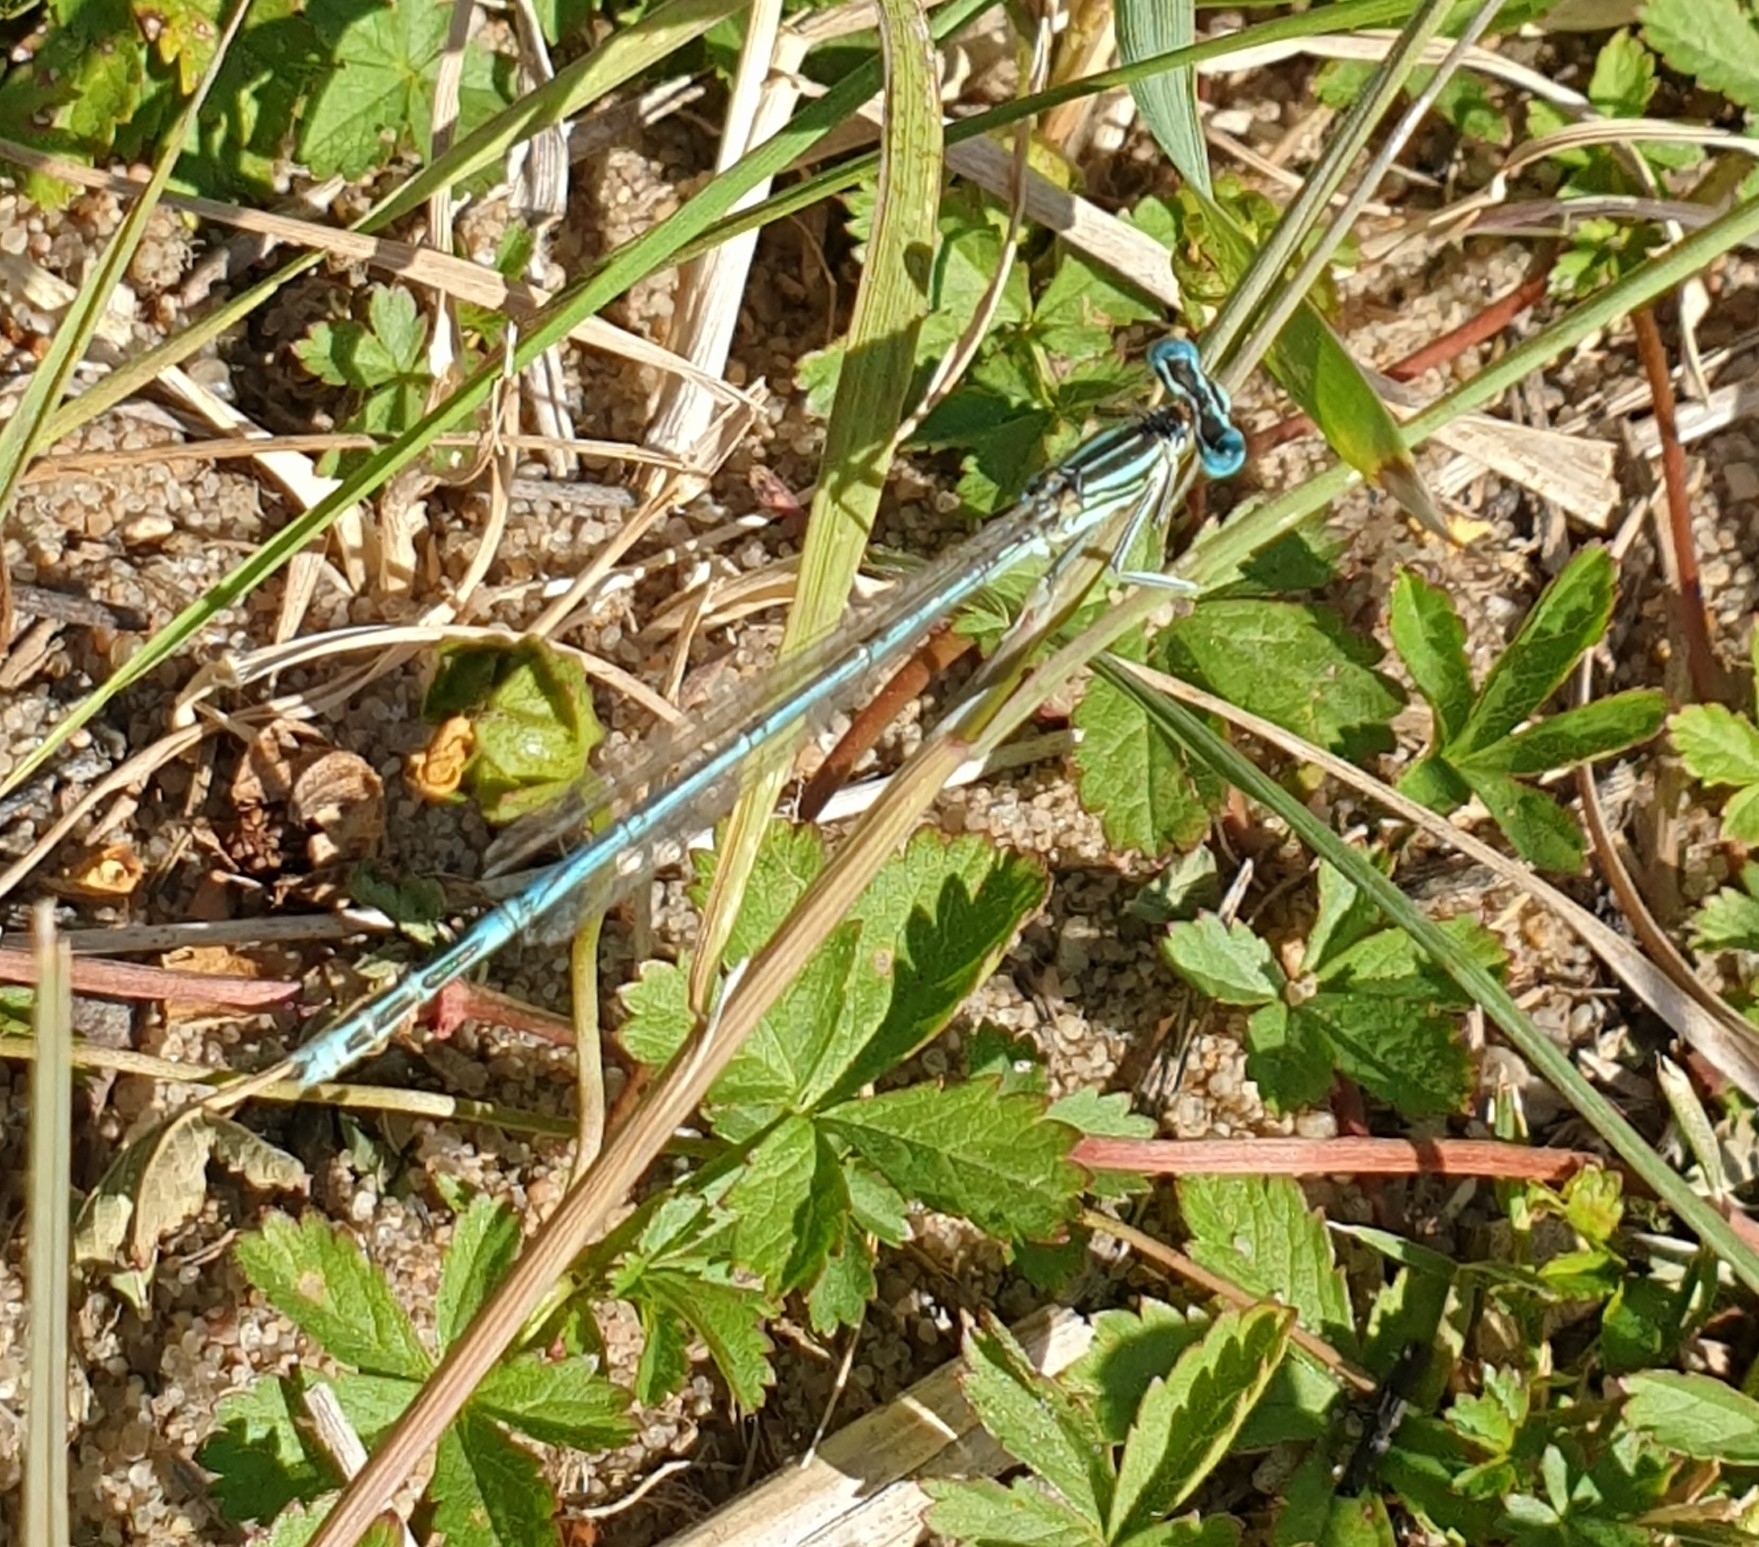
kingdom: Animalia
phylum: Arthropoda
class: Insecta
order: Odonata
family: Platycnemididae
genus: Platycnemis
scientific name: Platycnemis pennipes
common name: White-legged damselfly
